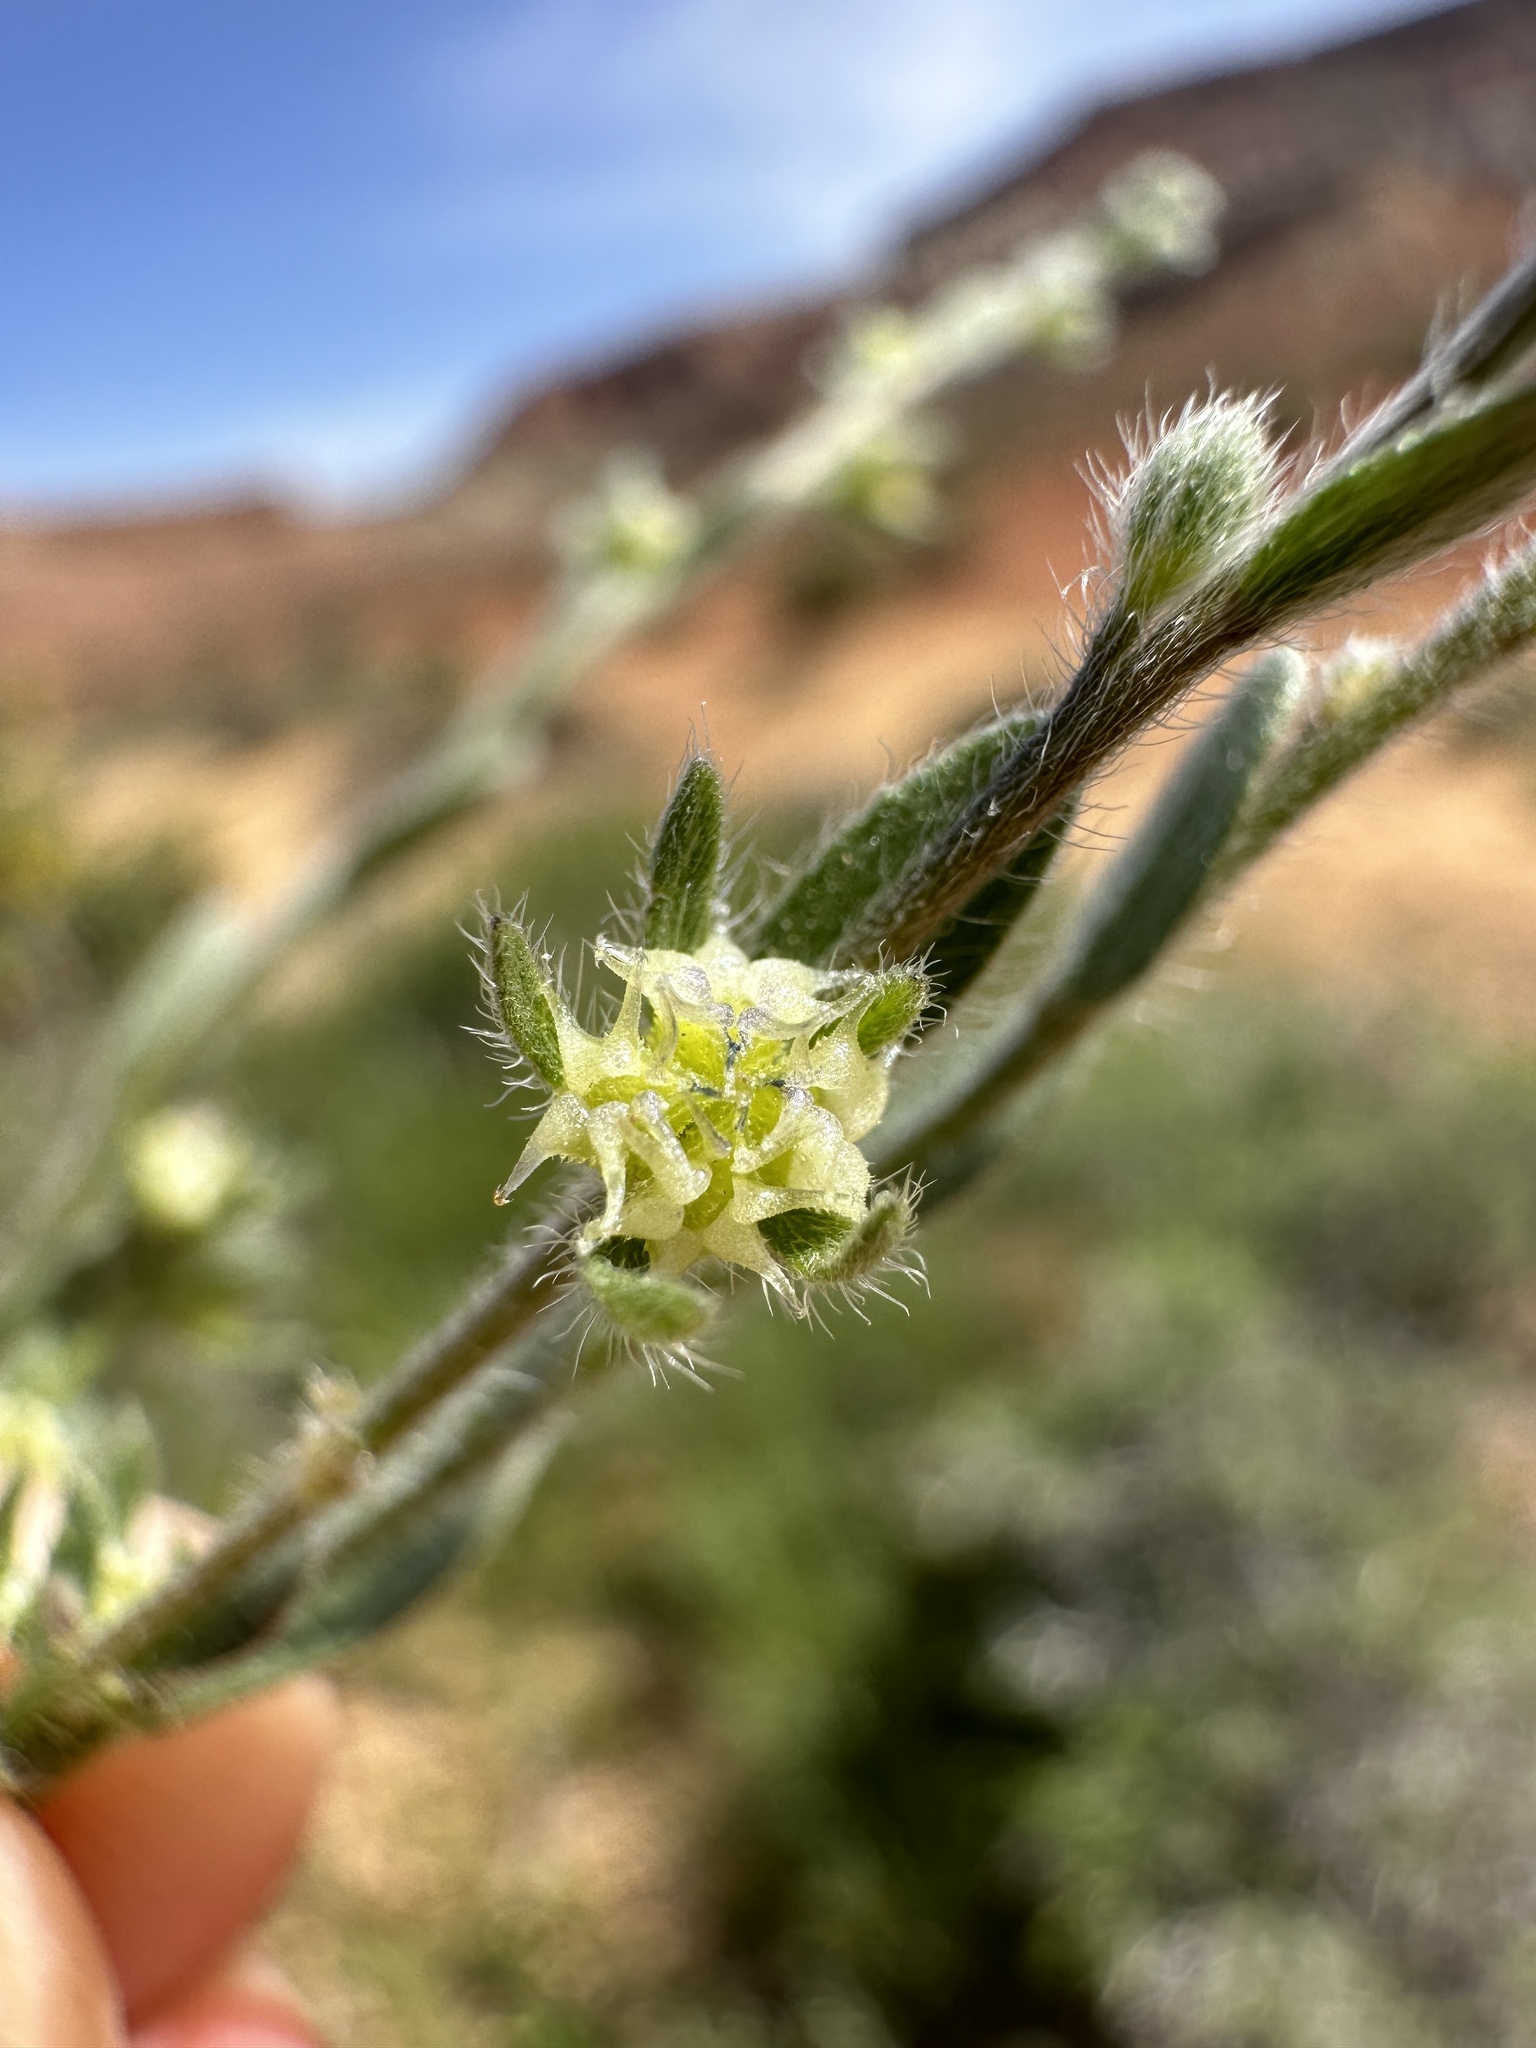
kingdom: Plantae
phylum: Tracheophyta
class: Magnoliopsida
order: Boraginales
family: Boraginaceae
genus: Lappula
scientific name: Lappula occidentalis
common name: Western stickseed
